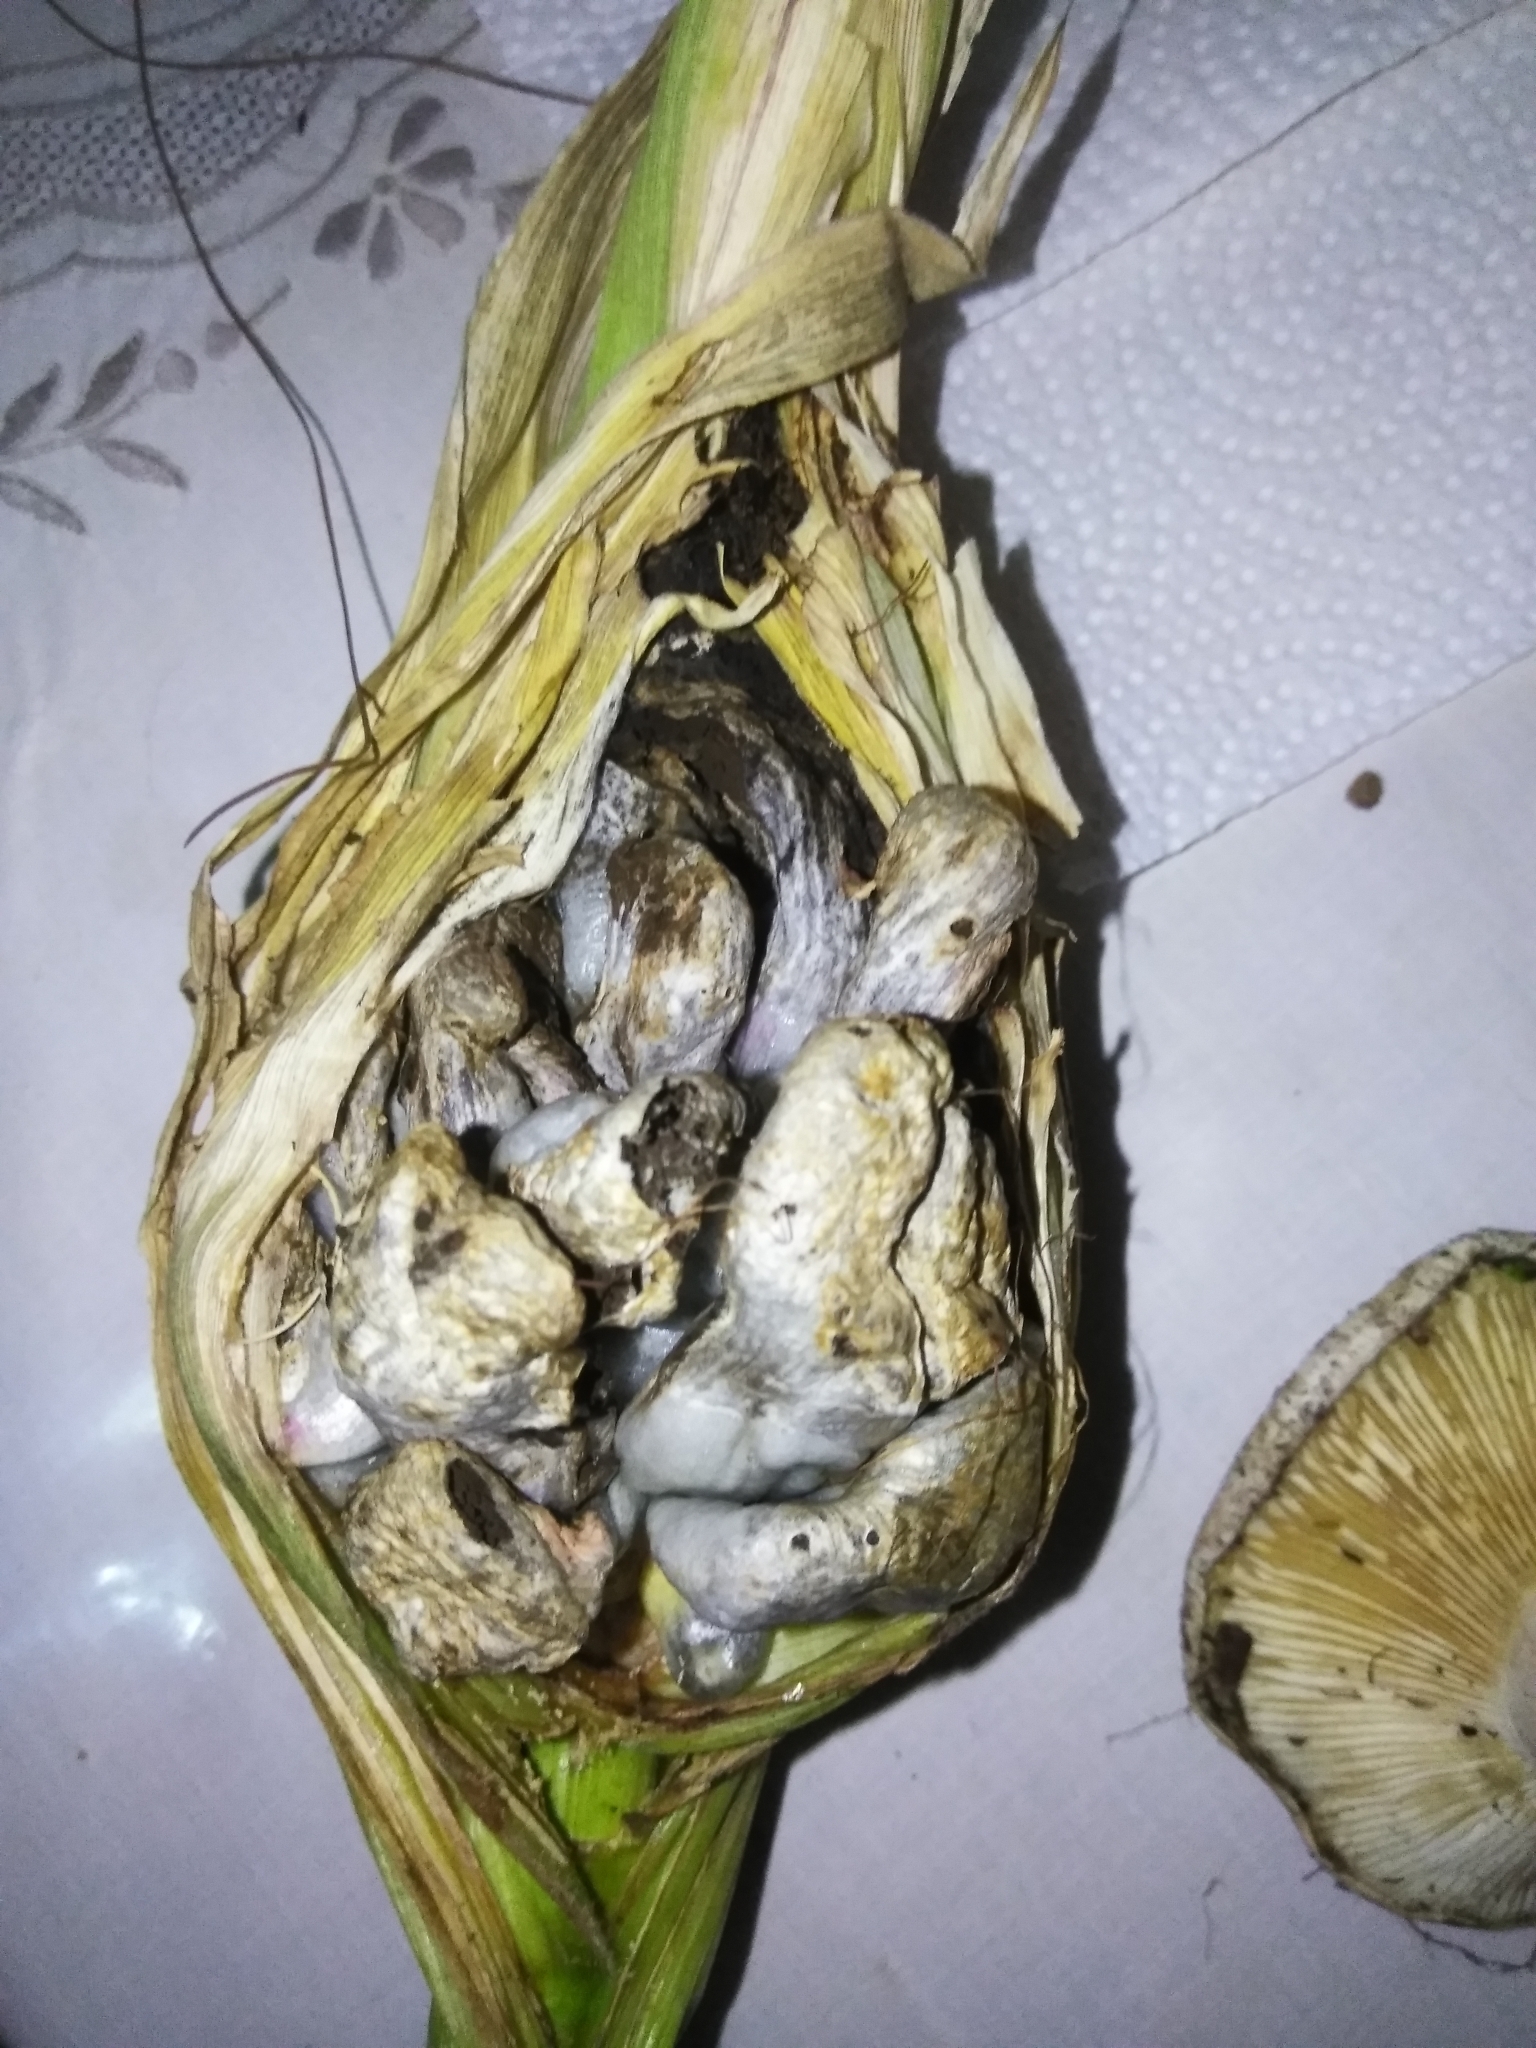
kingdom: Fungi
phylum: Basidiomycota
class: Ustilaginomycetes
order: Ustilaginales
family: Ustilaginaceae
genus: Mycosarcoma
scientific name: Mycosarcoma maydis
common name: Corn smut
